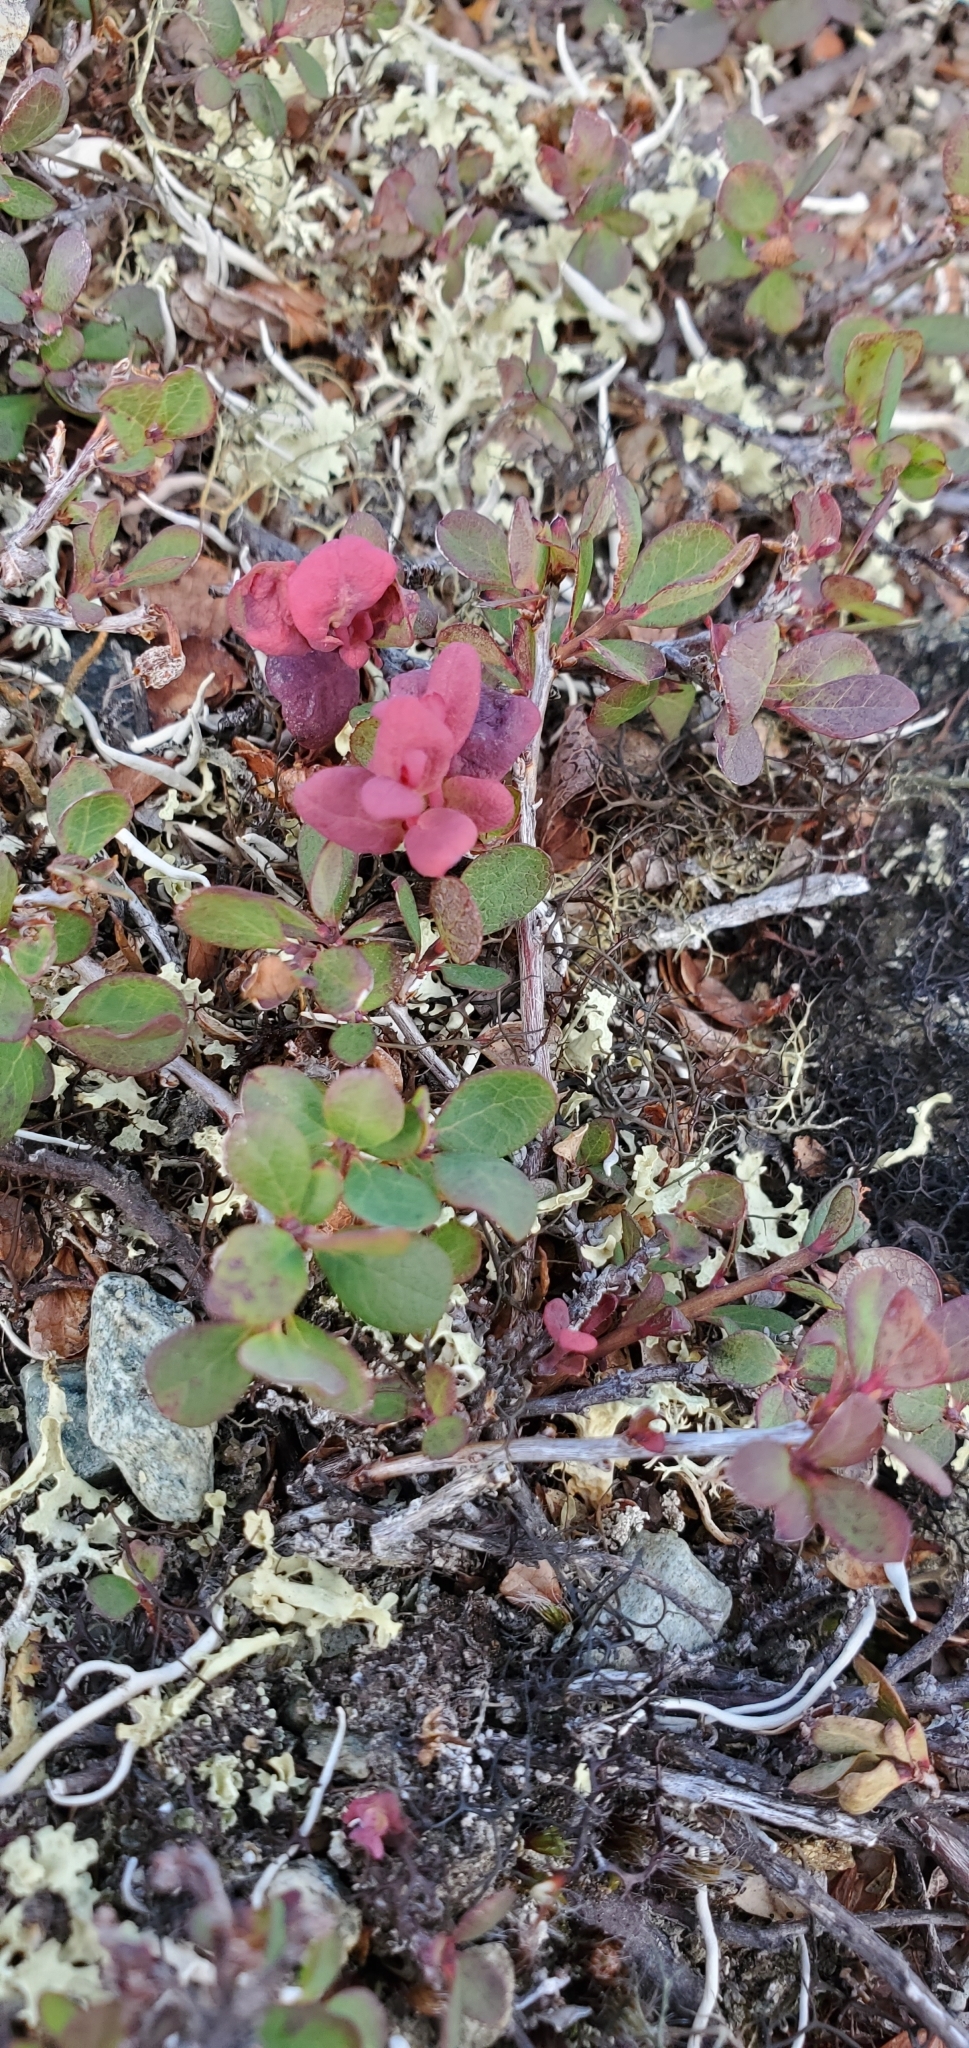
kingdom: Fungi
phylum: Basidiomycota
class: Exobasidiomycetes
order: Exobasidiales
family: Exobasidiaceae
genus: Exobasidium
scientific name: Exobasidium vaccinii-uliginosi
